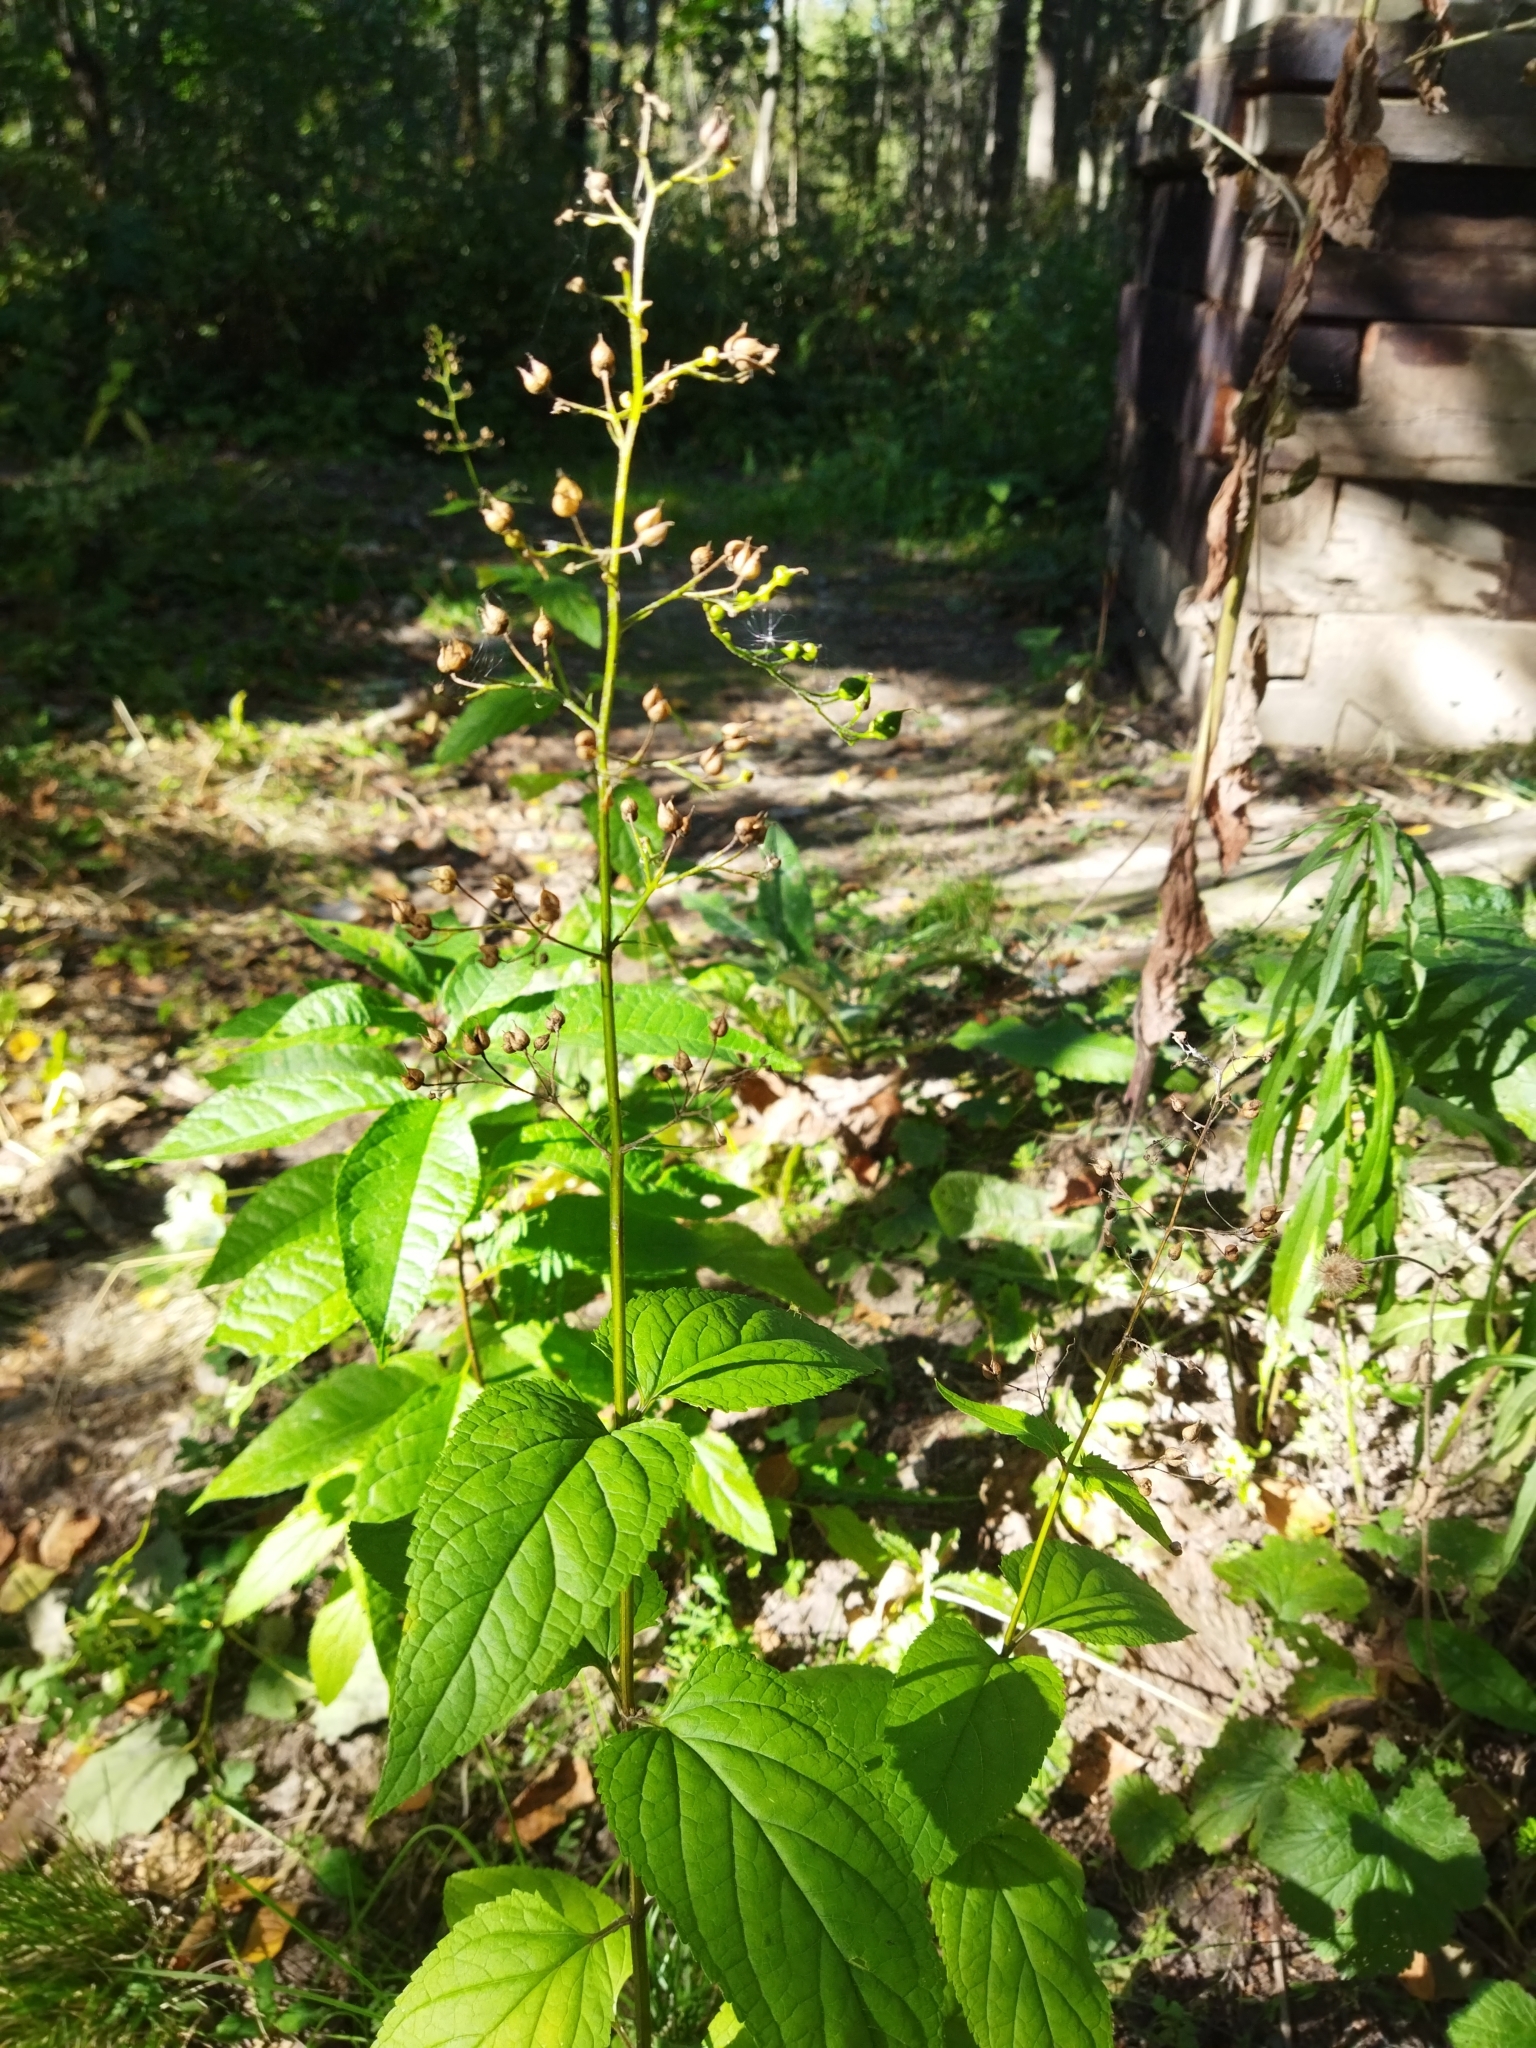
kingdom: Plantae
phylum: Tracheophyta
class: Magnoliopsida
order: Lamiales
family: Scrophulariaceae
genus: Scrophularia
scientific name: Scrophularia nodosa
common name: Common figwort
